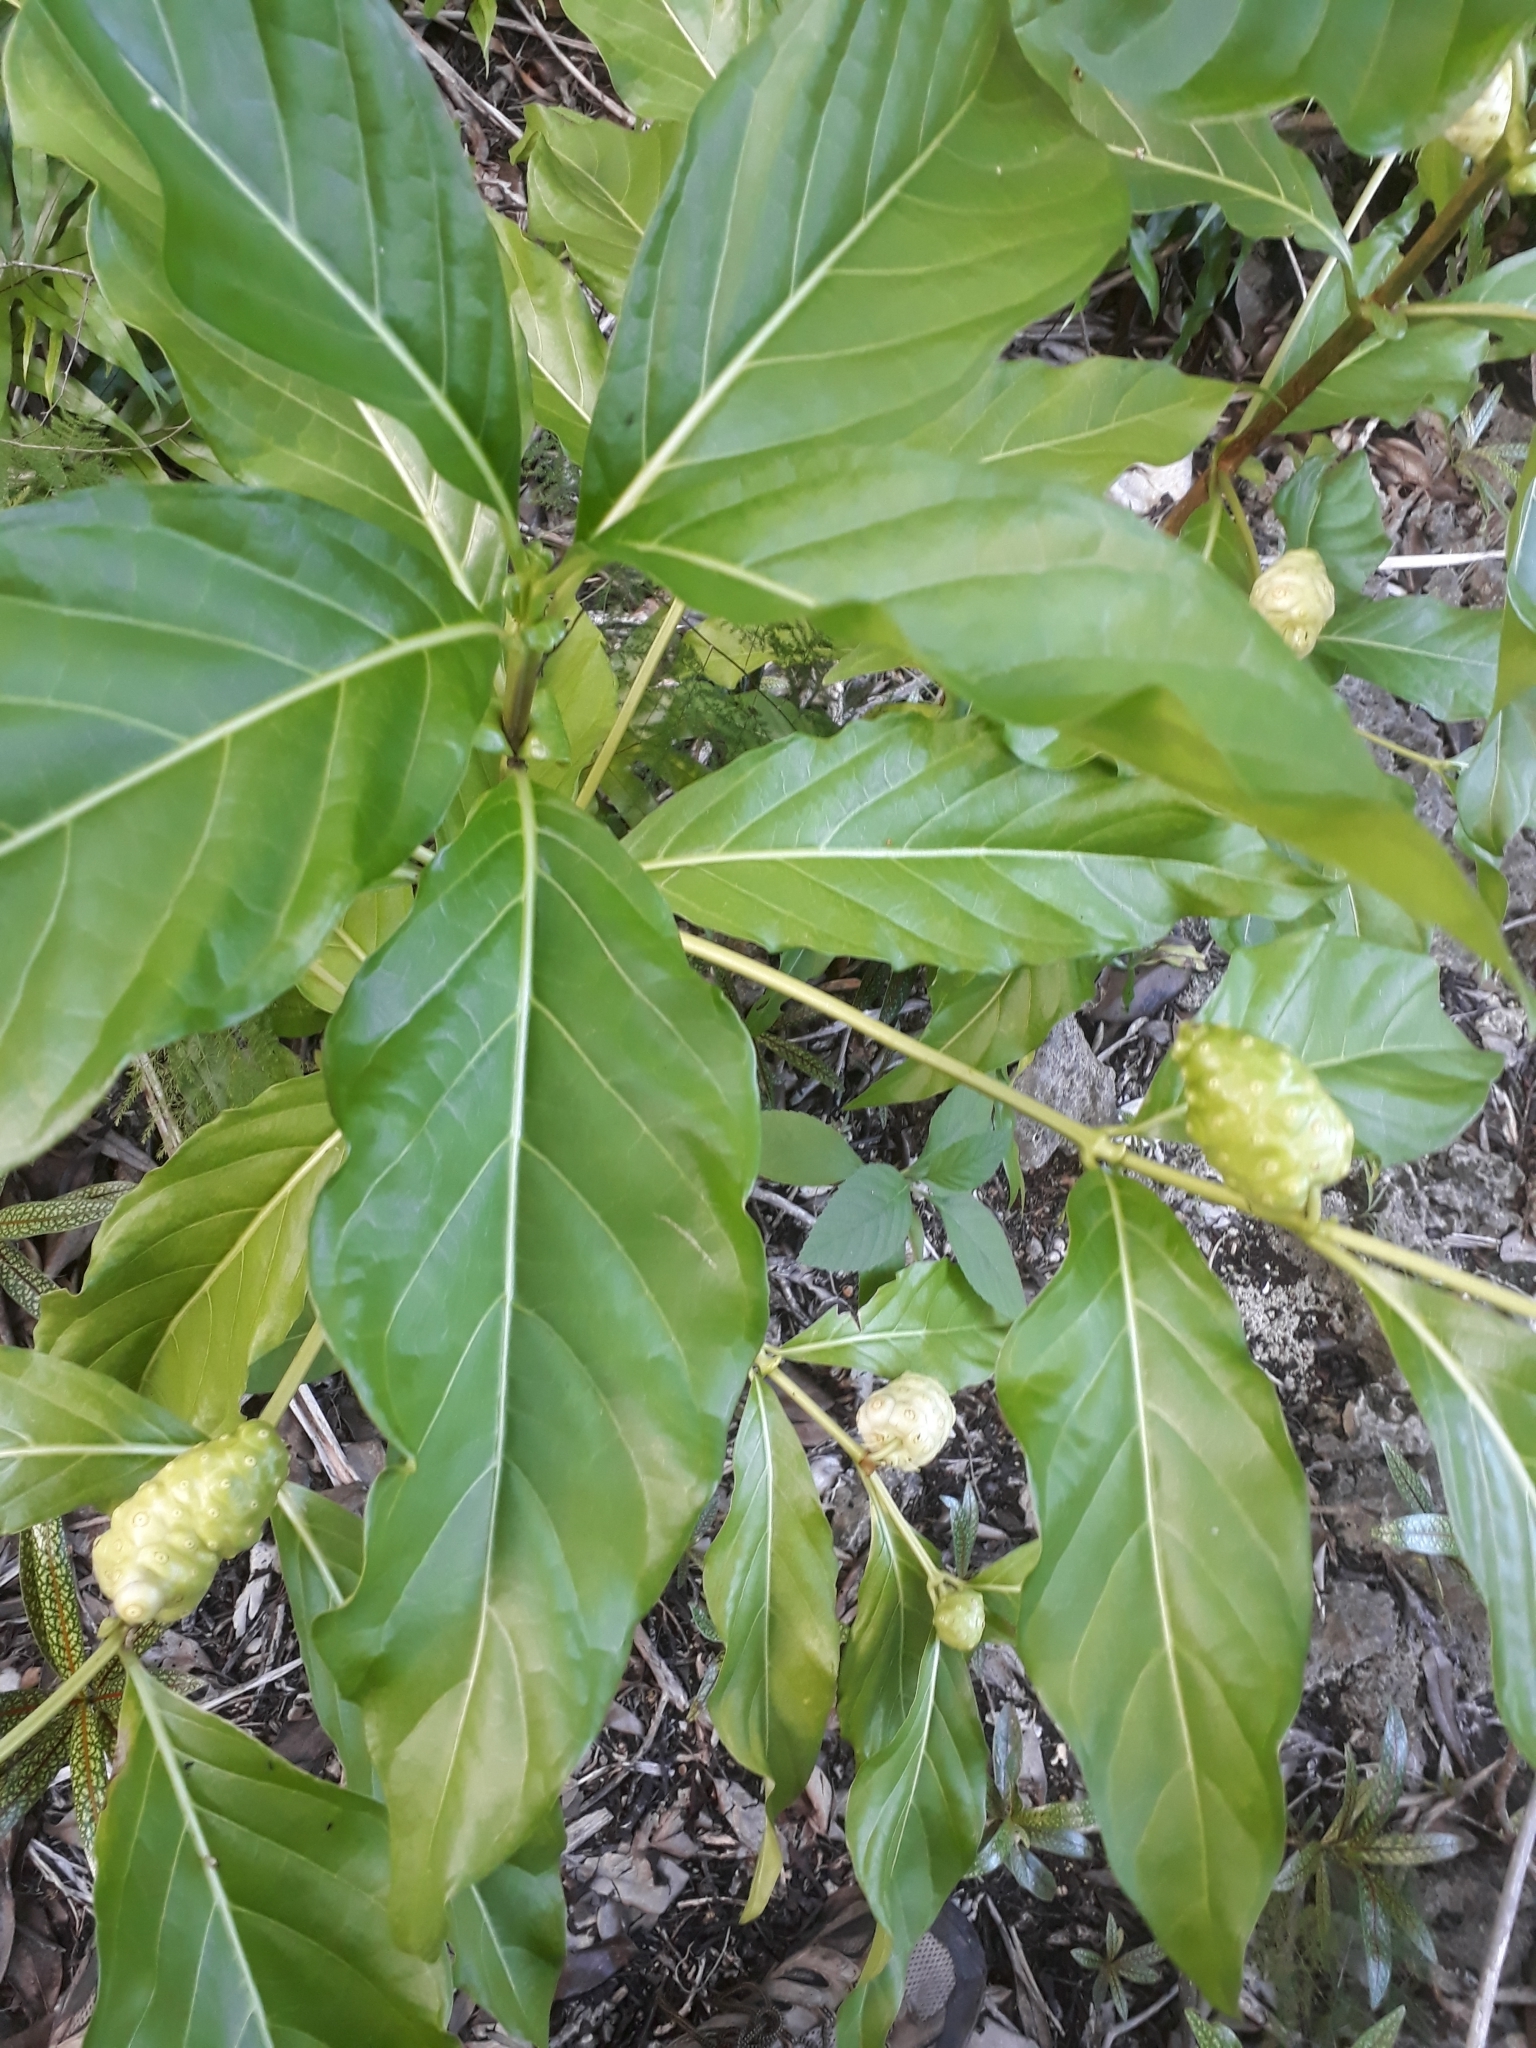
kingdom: Plantae
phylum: Tracheophyta
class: Magnoliopsida
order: Gentianales
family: Rubiaceae
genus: Morinda
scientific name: Morinda citrifolia
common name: Indian-mulberry
